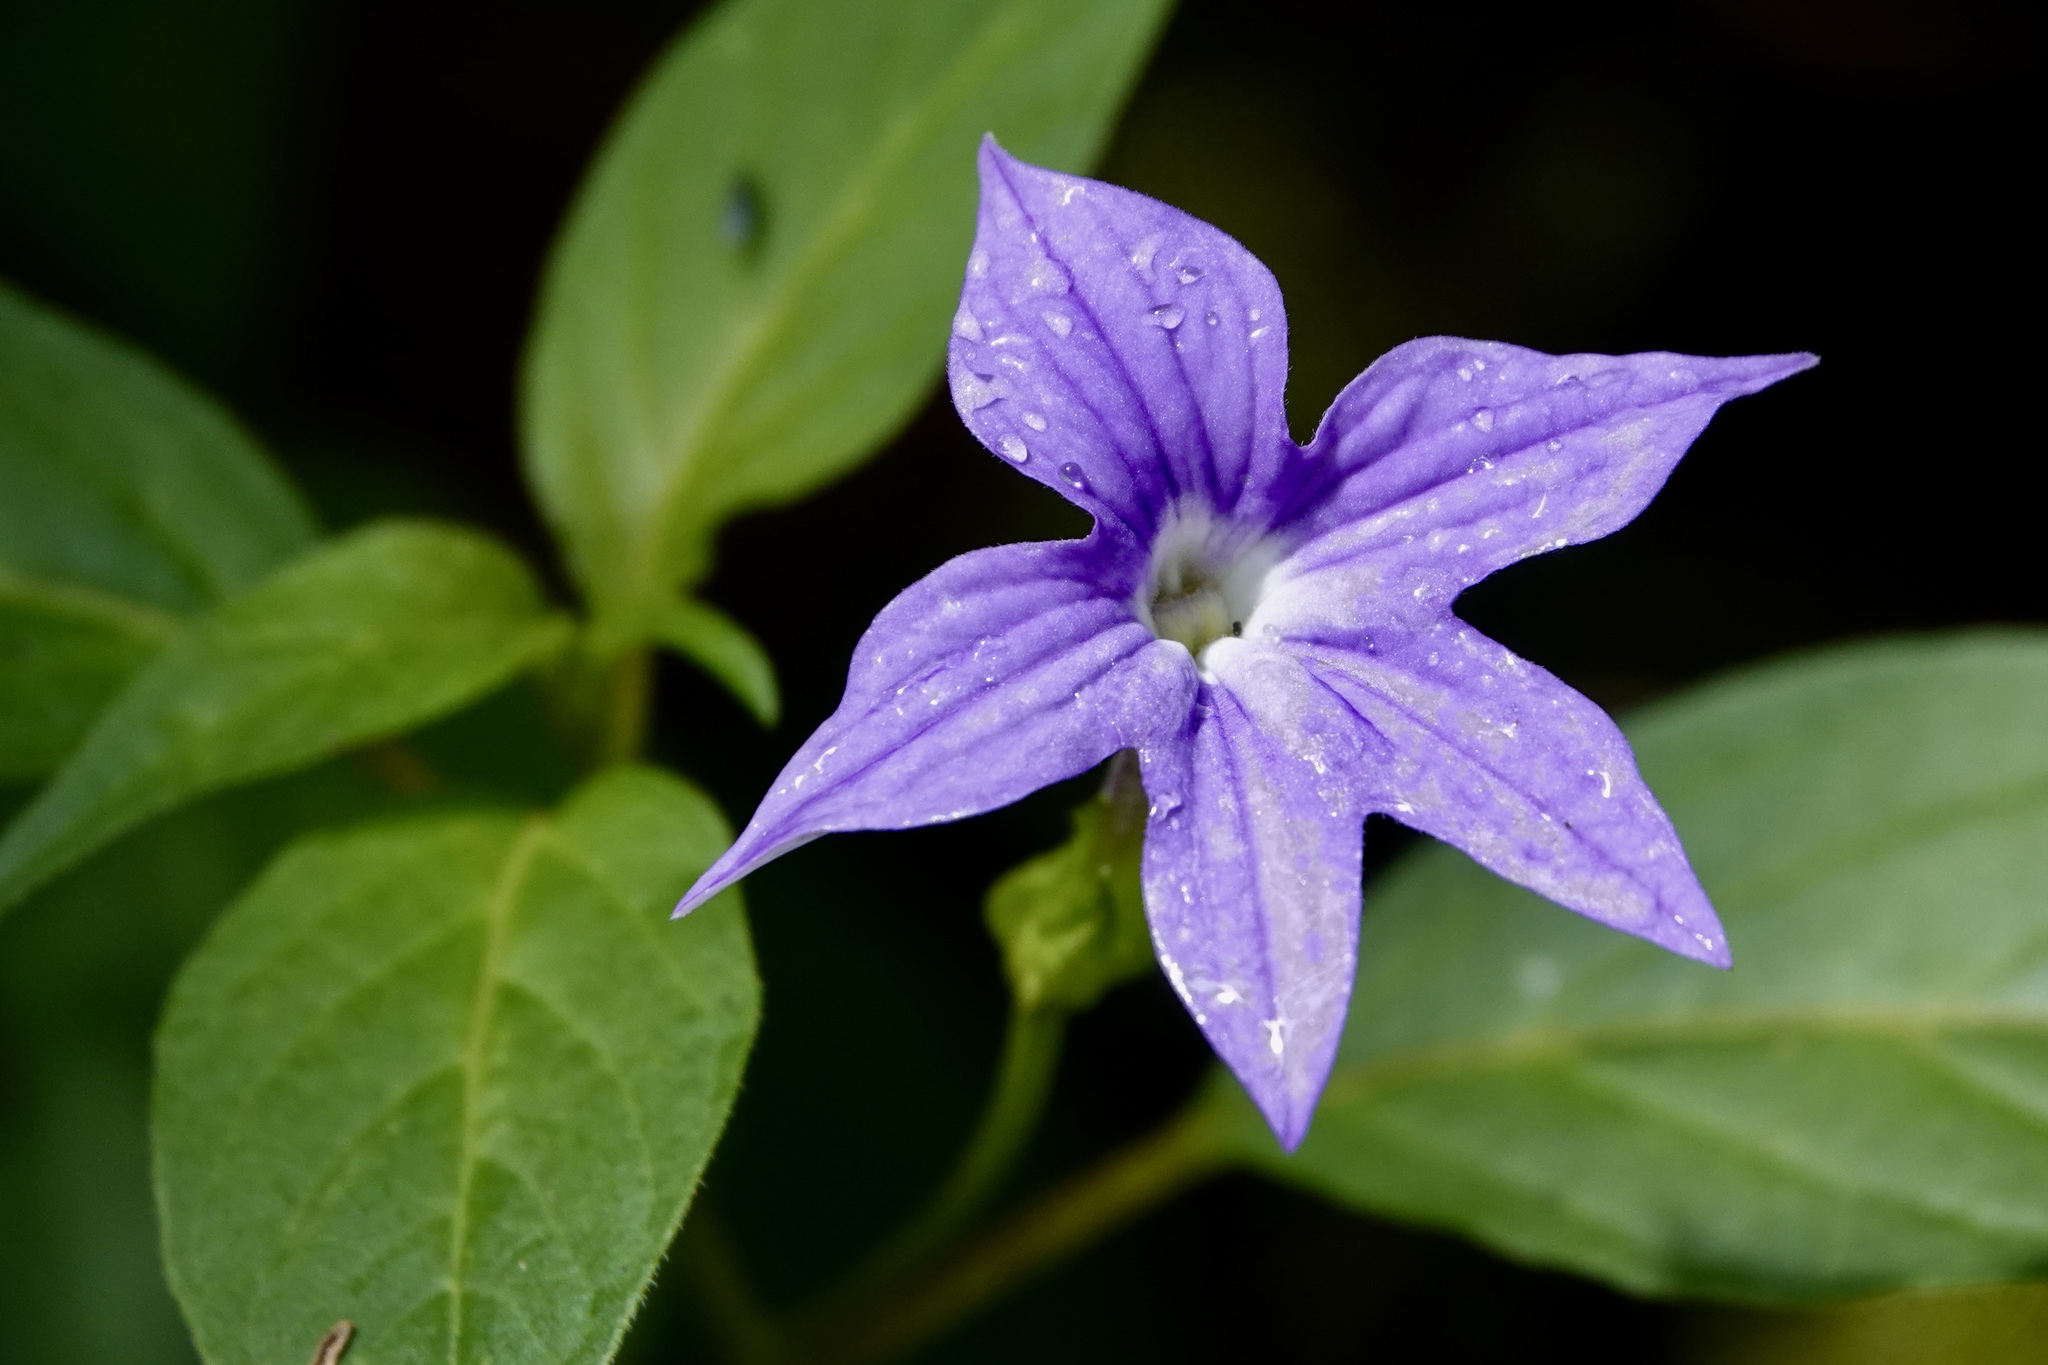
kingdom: Plantae
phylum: Tracheophyta
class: Magnoliopsida
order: Solanales
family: Solanaceae
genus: Browallia
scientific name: Browallia speciosa
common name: Bush-violet
